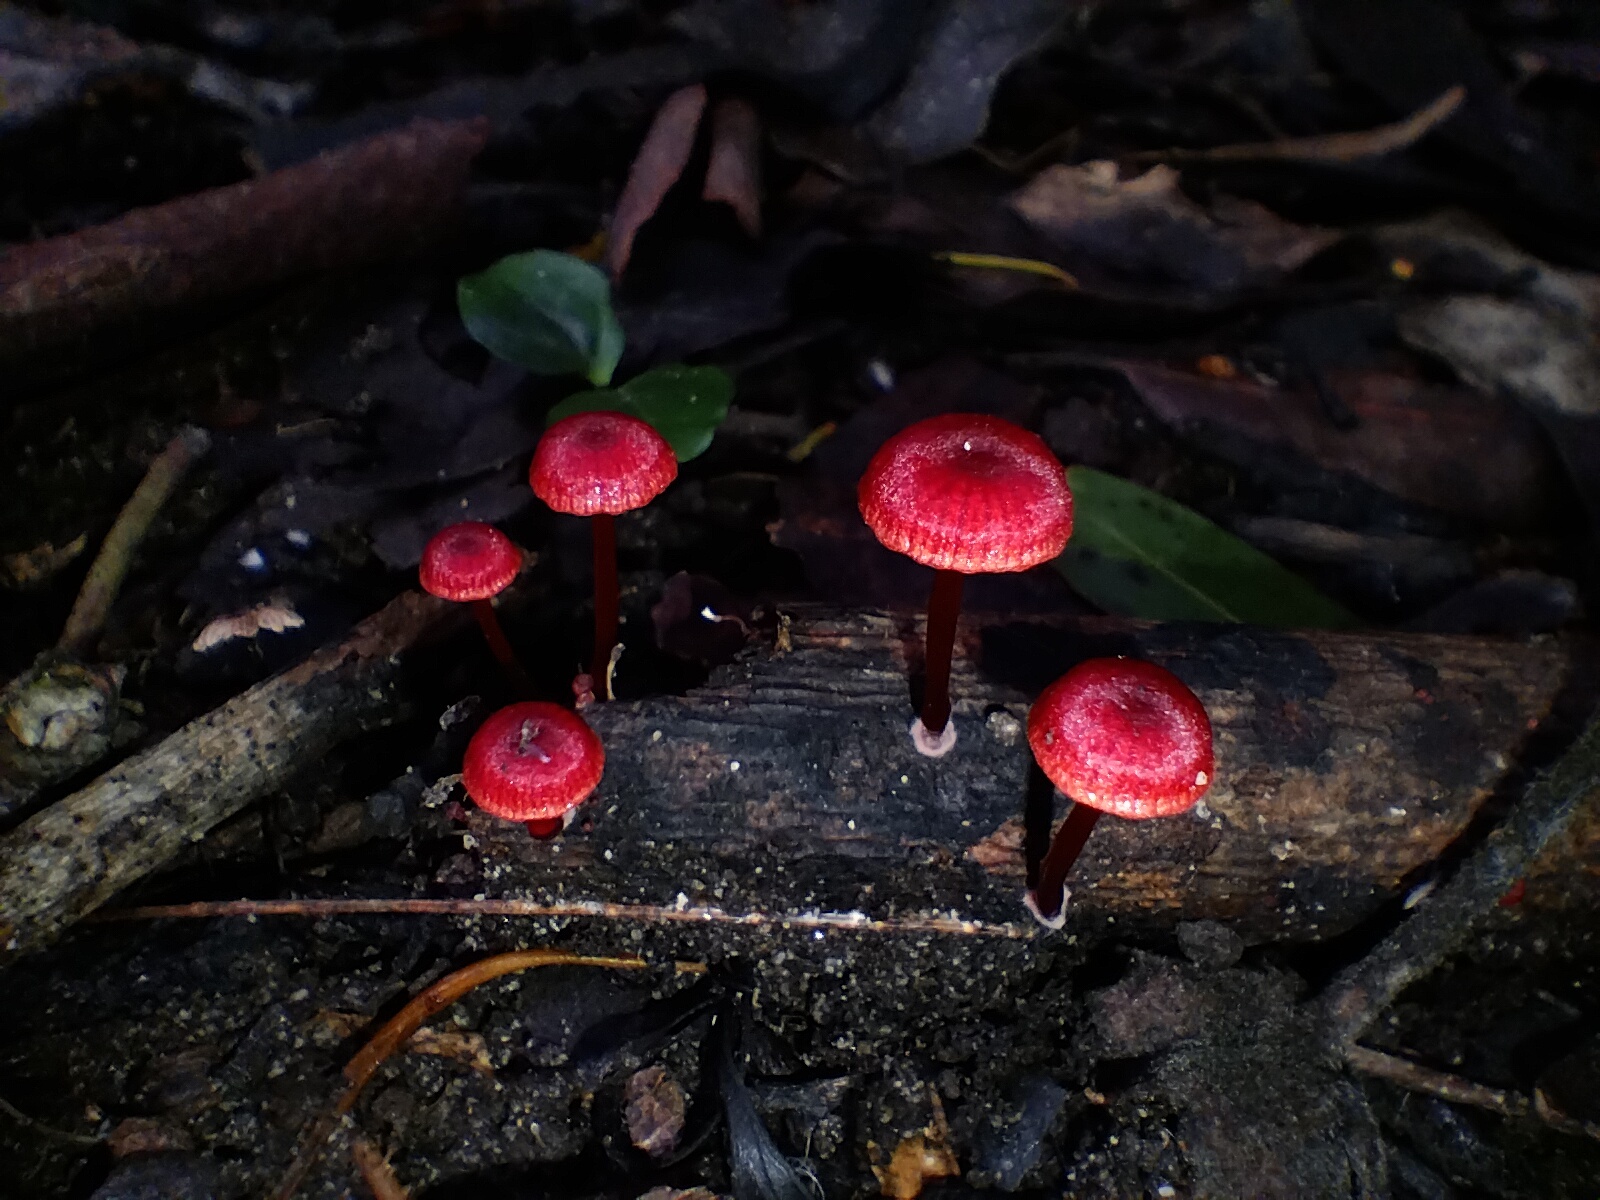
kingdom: Fungi
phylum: Basidiomycota
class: Agaricomycetes
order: Agaricales
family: Mycenaceae
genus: Cruentomycena
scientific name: Cruentomycena viscidocruenta
